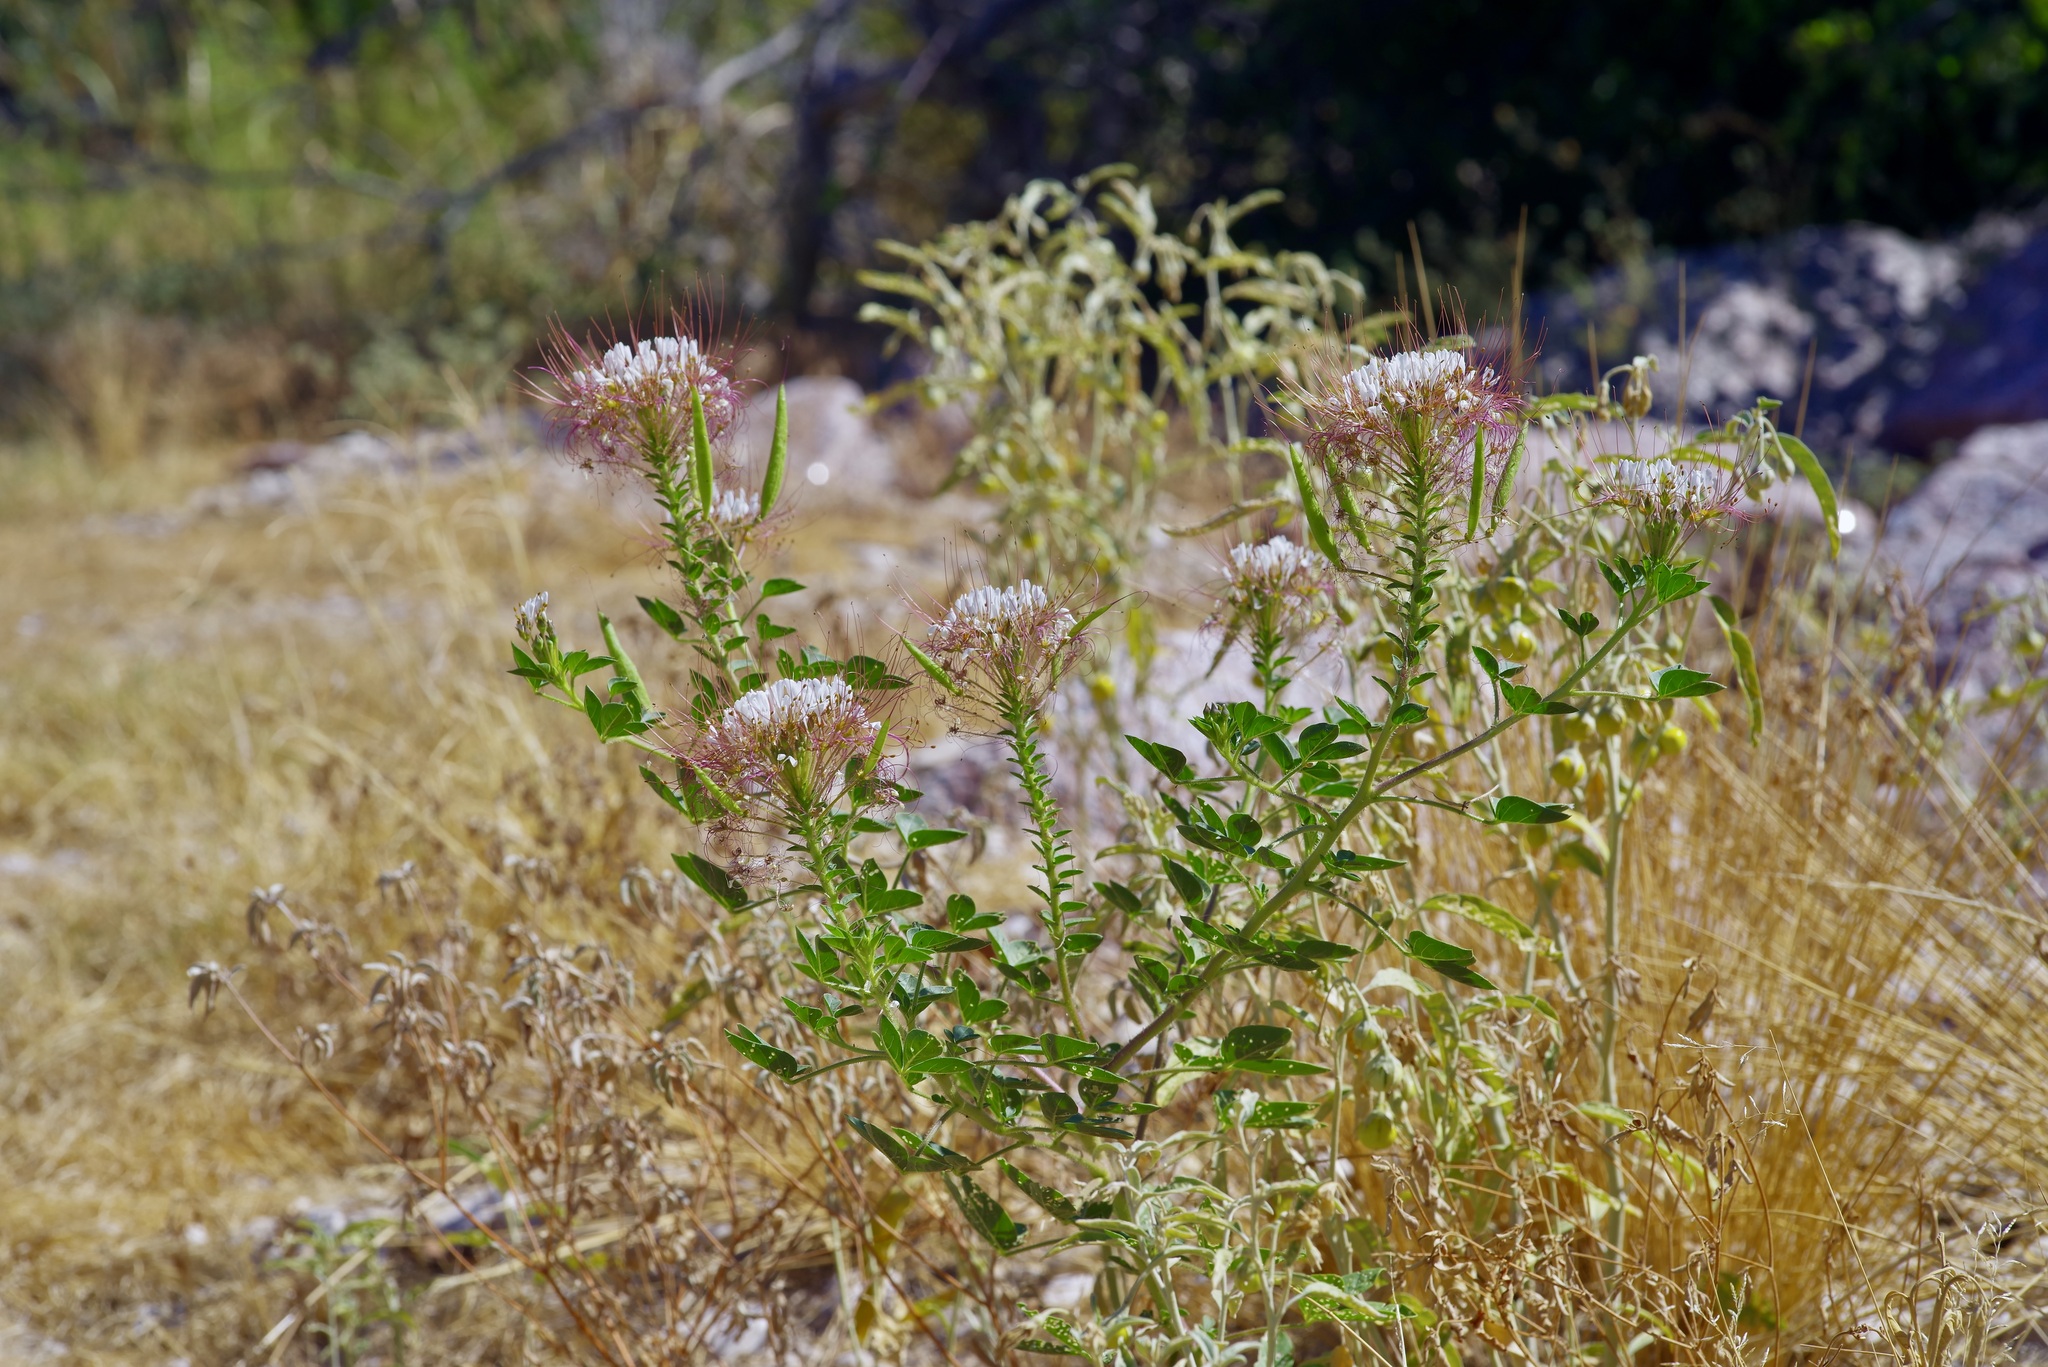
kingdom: Plantae
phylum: Tracheophyta
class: Magnoliopsida
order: Brassicales
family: Cleomaceae
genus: Polanisia
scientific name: Polanisia dodecandra
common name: Clammyweed
